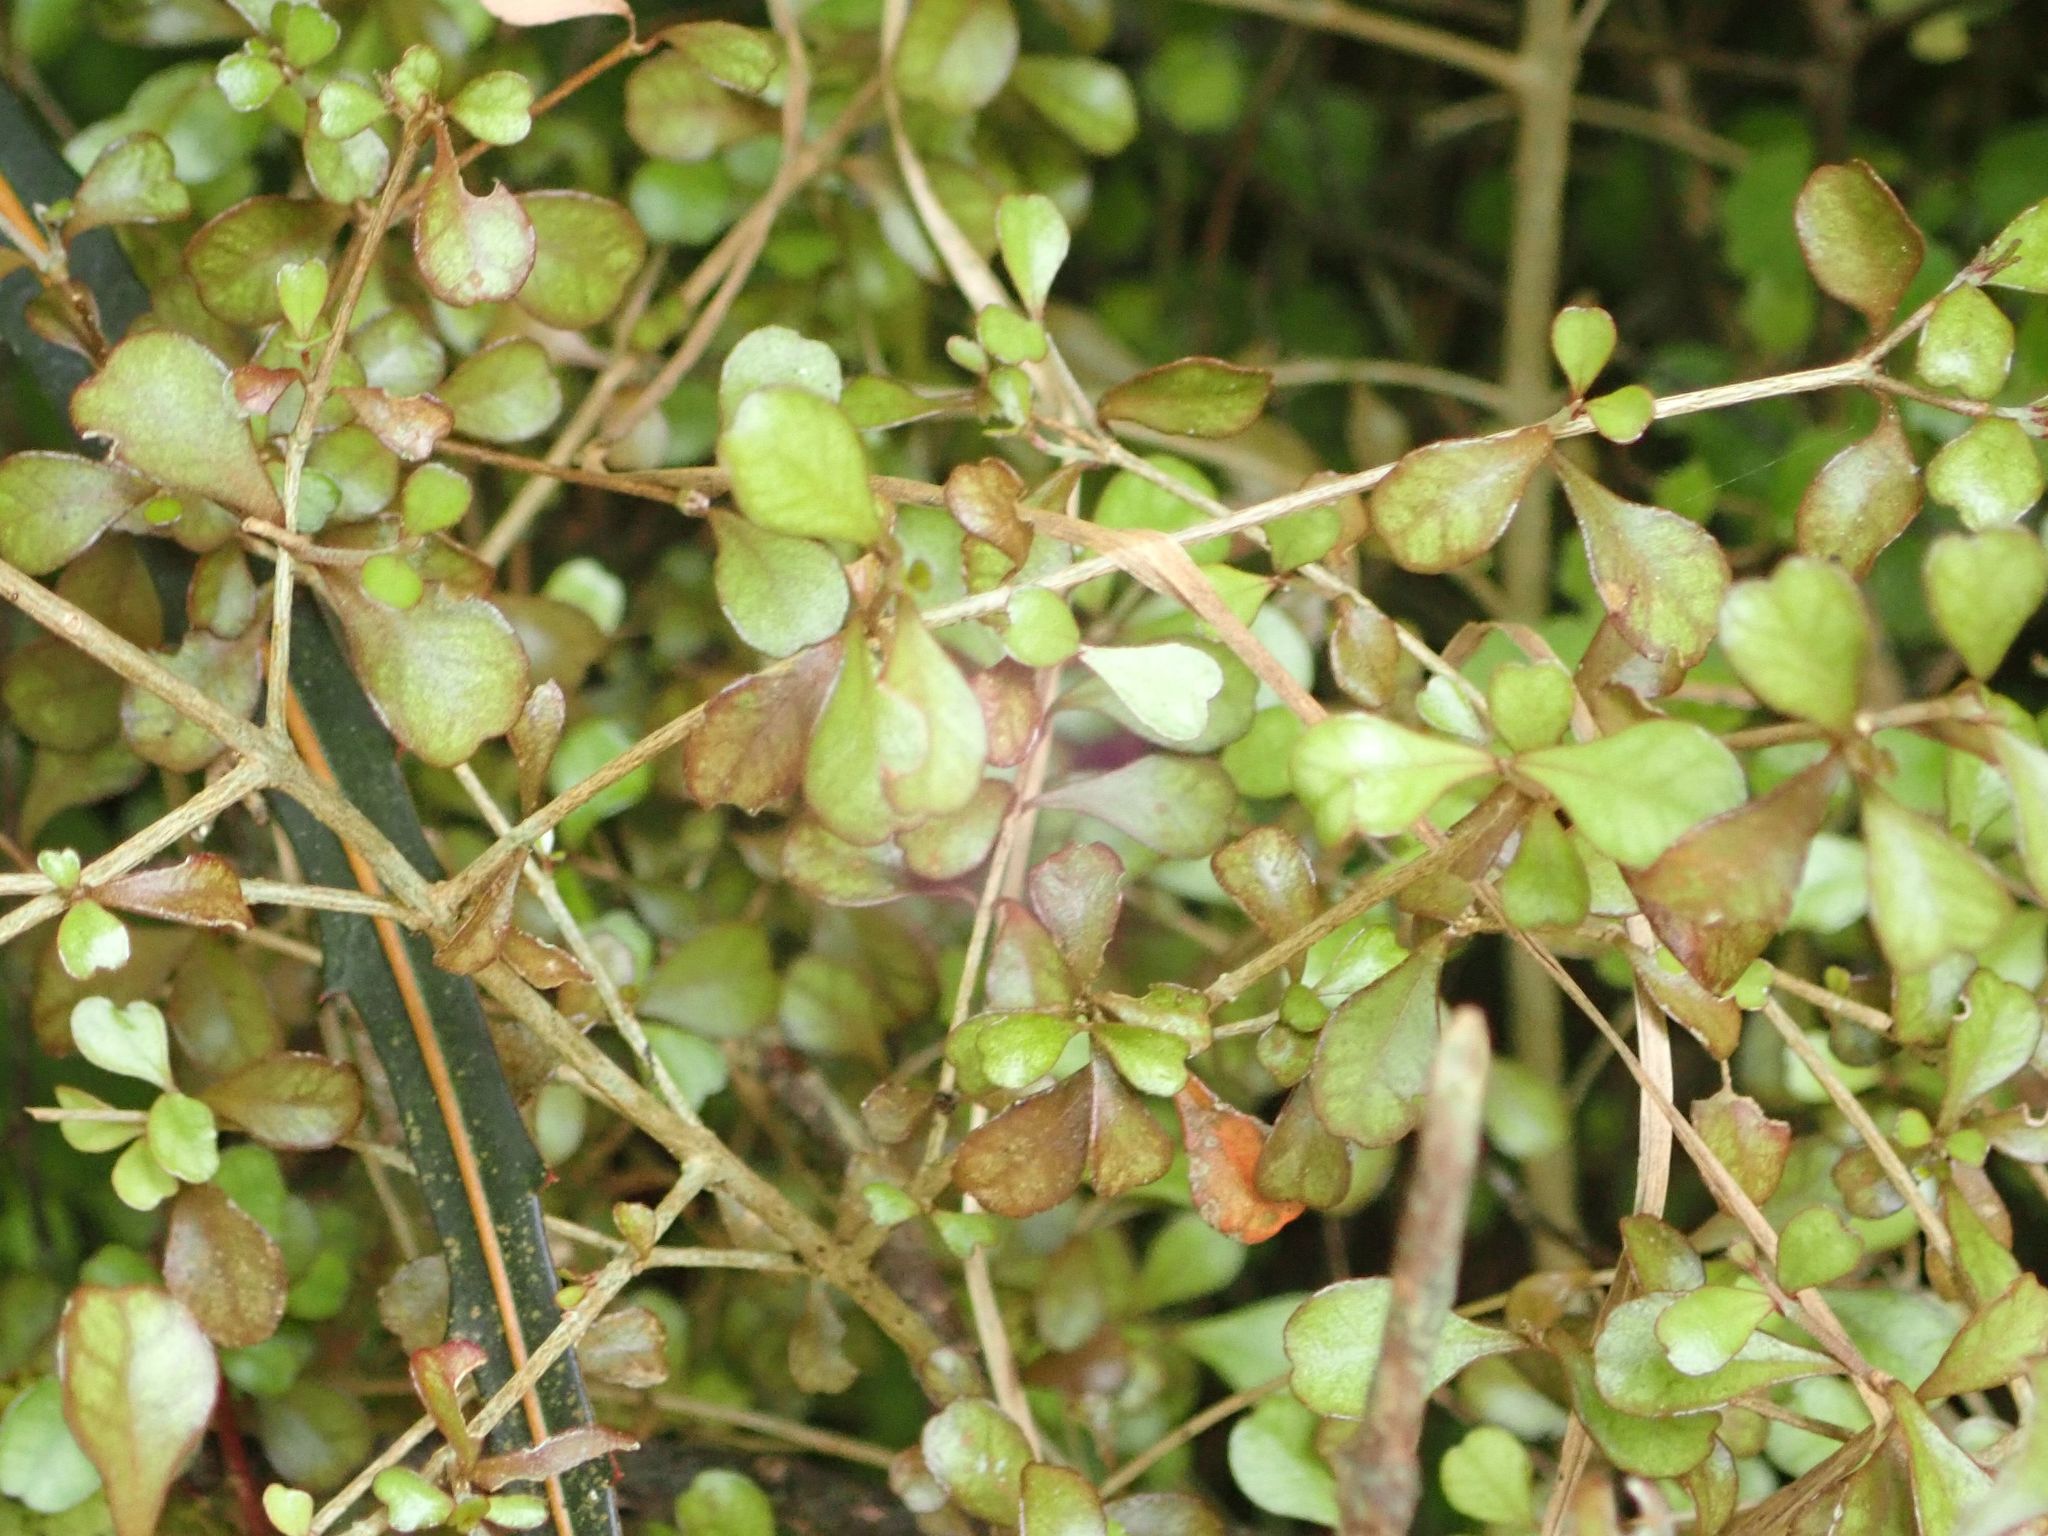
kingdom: Plantae
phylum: Tracheophyta
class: Magnoliopsida
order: Myrtales
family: Myrtaceae
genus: Lophomyrtus
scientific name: Lophomyrtus obcordata
